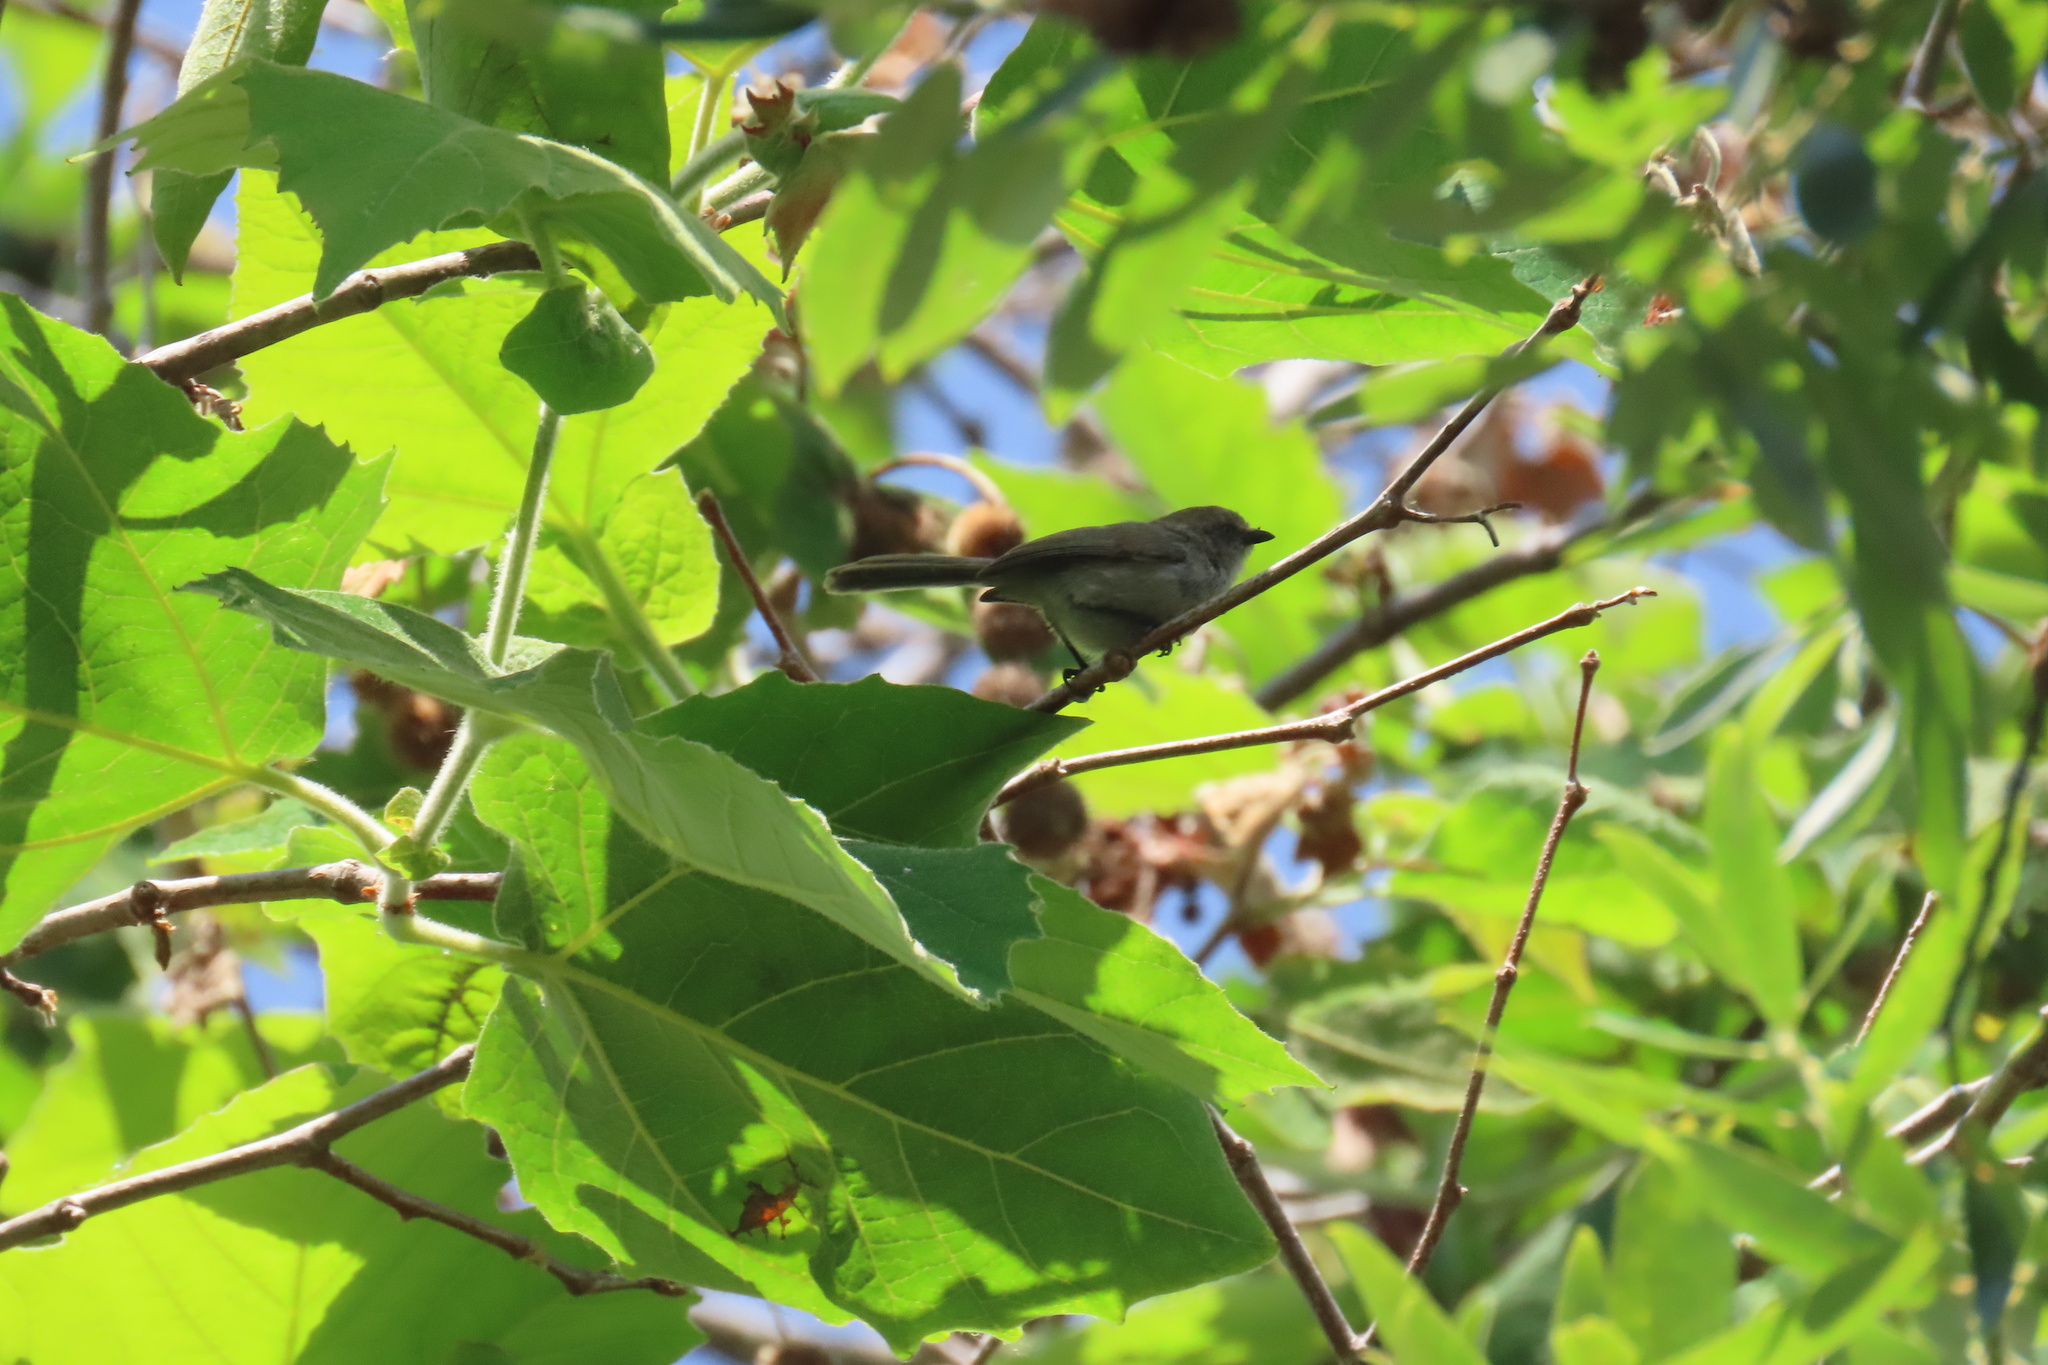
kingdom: Animalia
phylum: Chordata
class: Aves
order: Passeriformes
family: Aegithalidae
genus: Psaltriparus
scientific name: Psaltriparus minimus
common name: American bushtit
